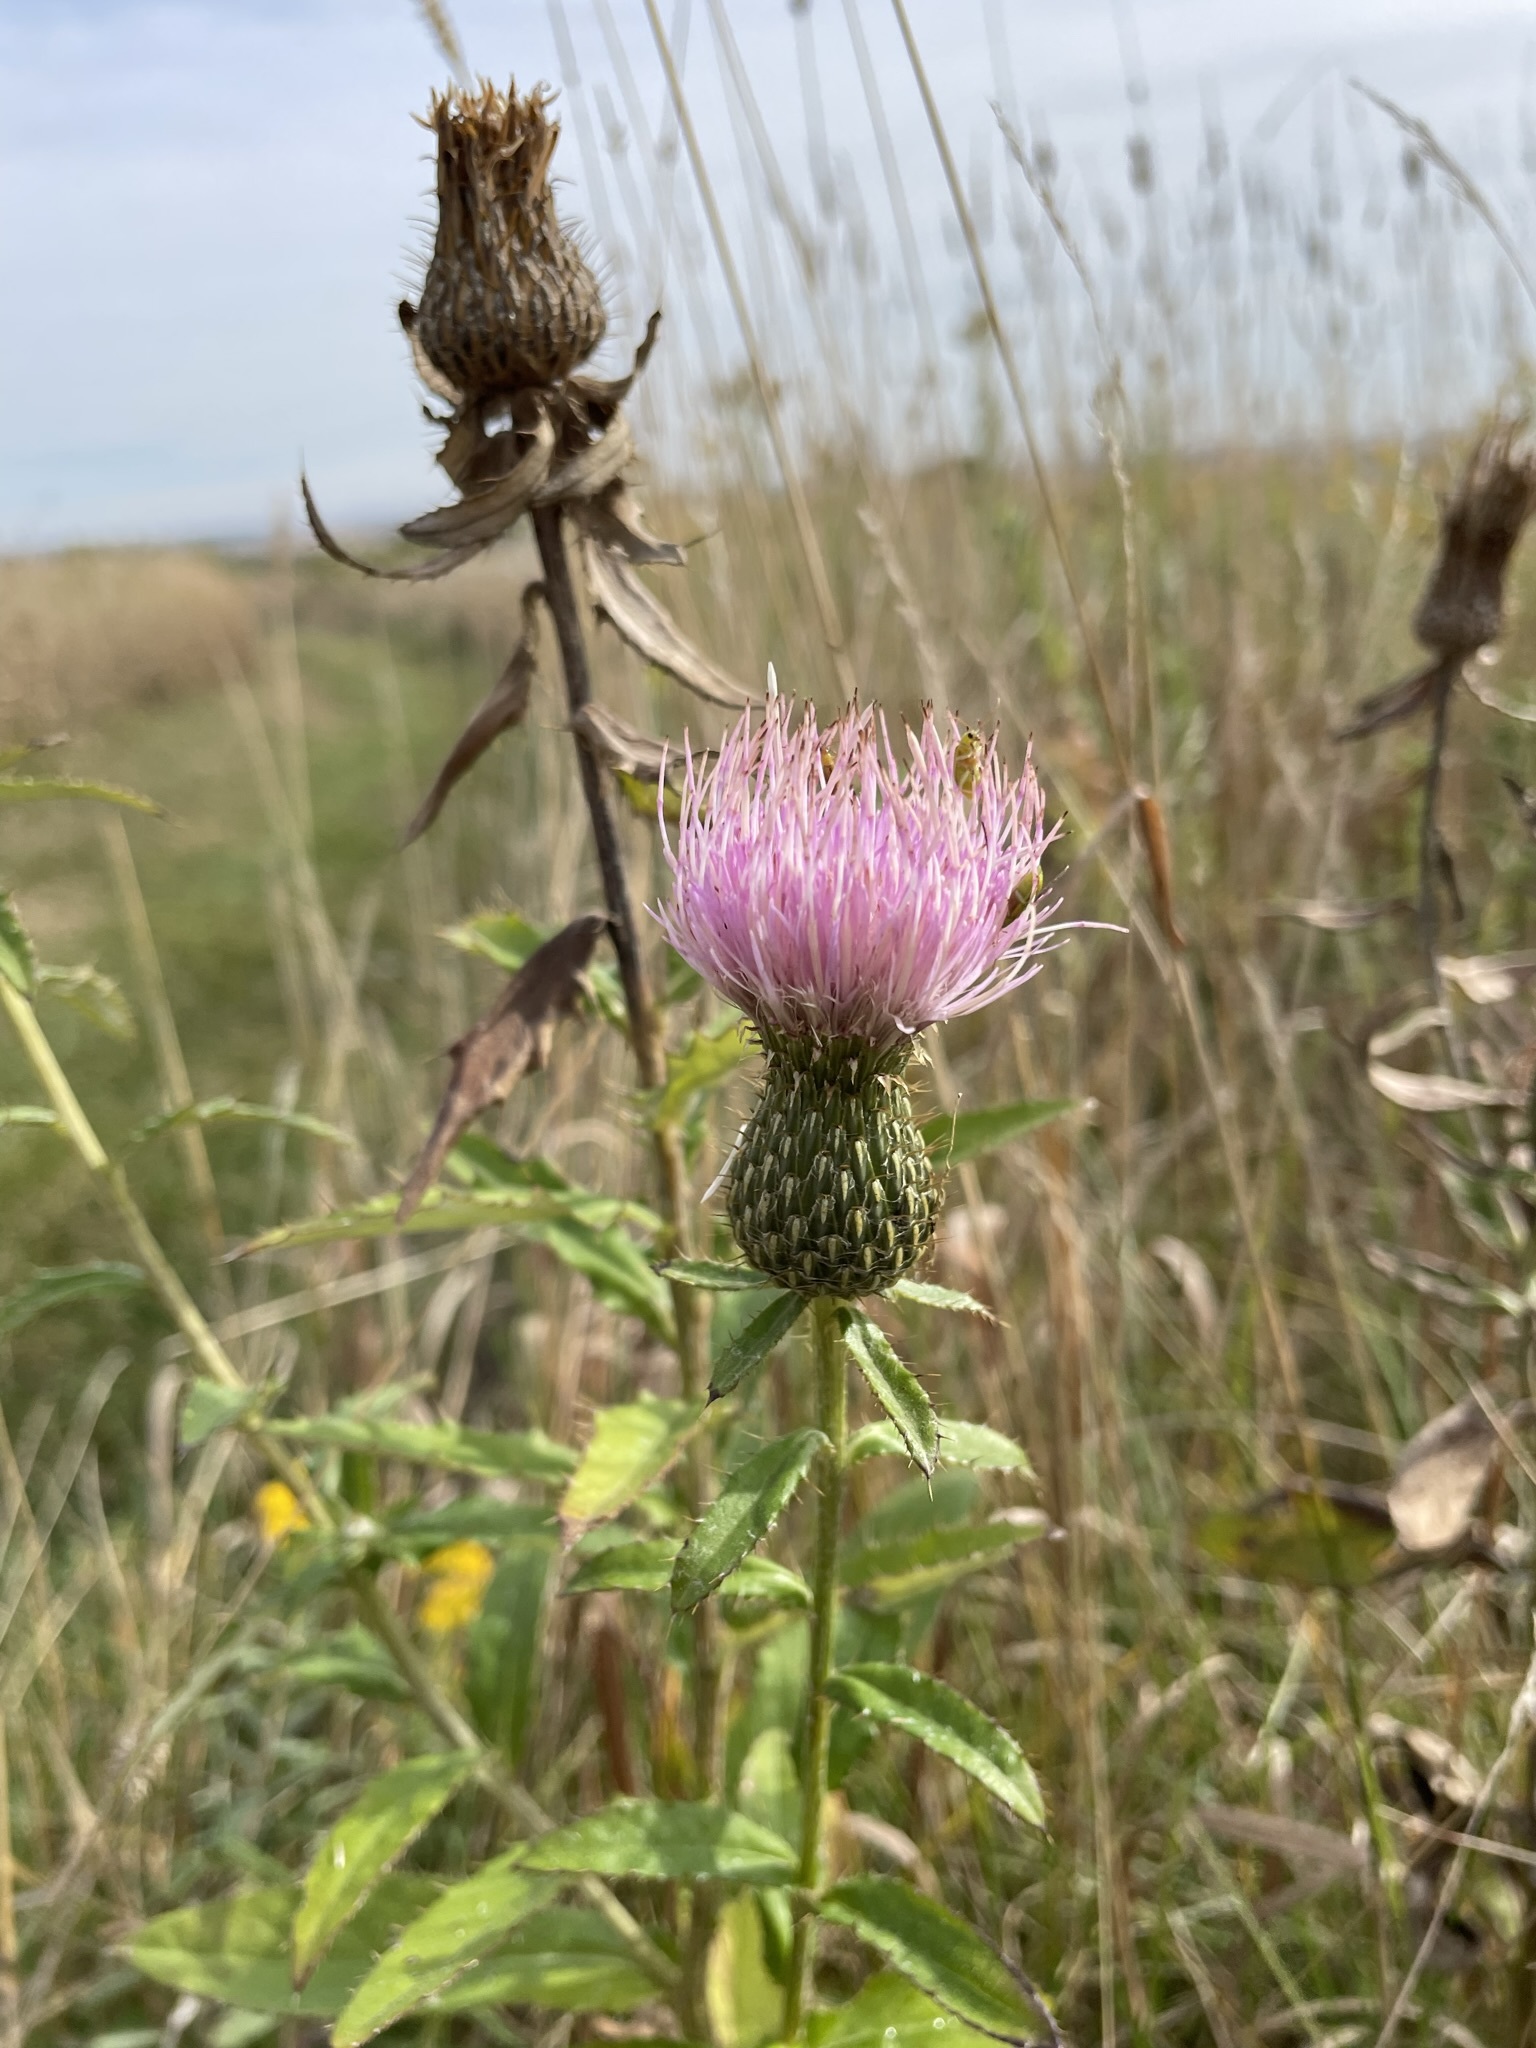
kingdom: Plantae
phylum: Tracheophyta
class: Magnoliopsida
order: Asterales
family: Asteraceae
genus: Cirsium
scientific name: Cirsium altissimum
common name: Roadside thistle
